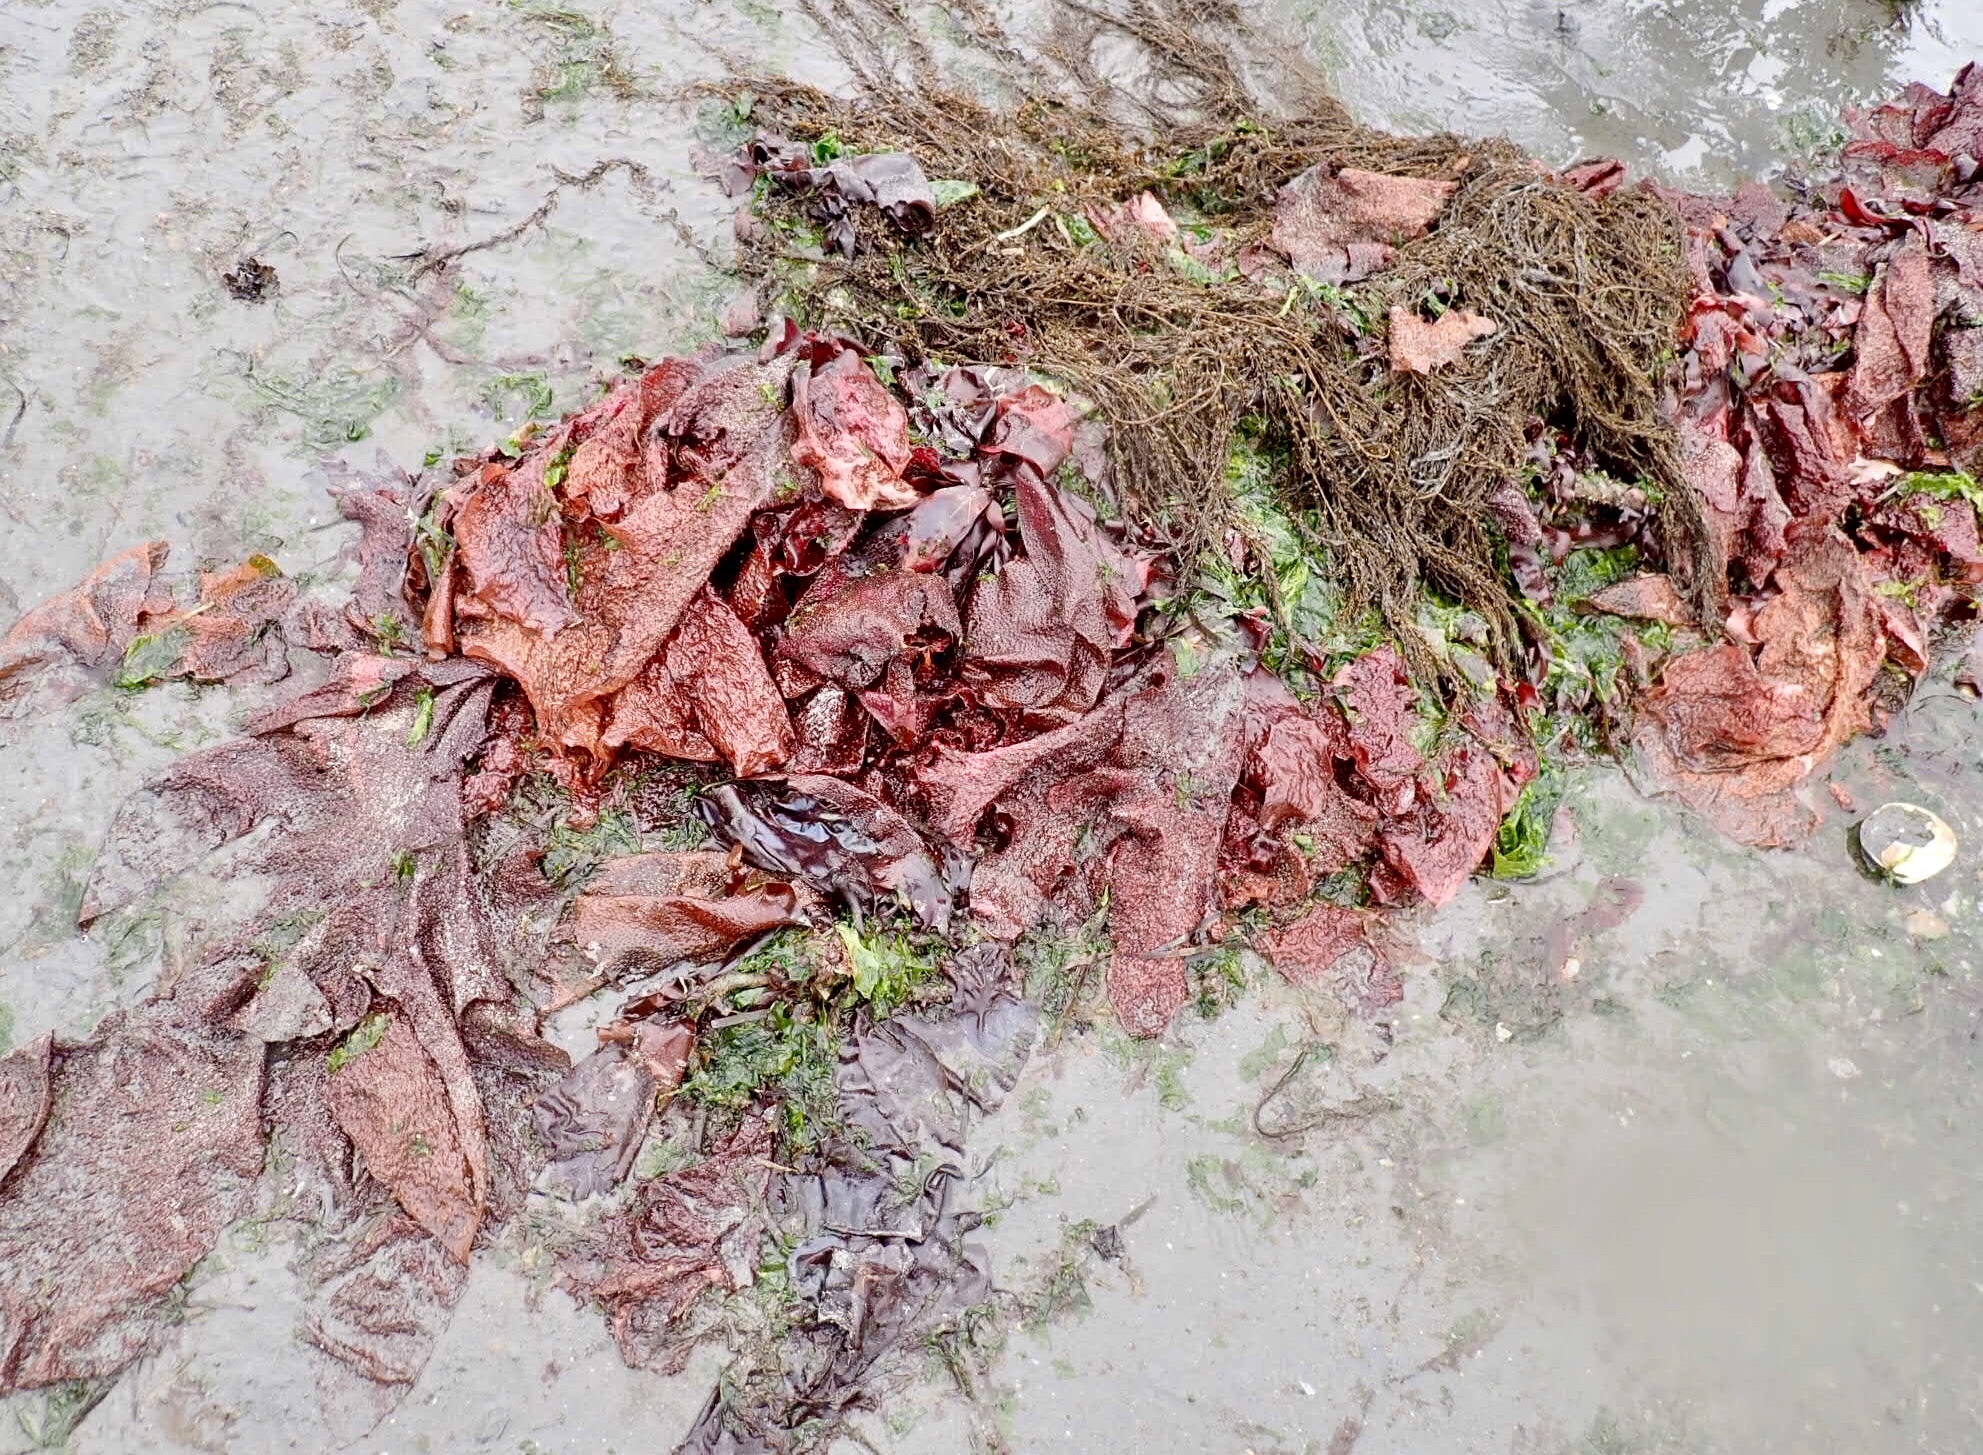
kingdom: Plantae
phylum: Rhodophyta
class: Florideophyceae
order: Gigartinales
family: Gigartinaceae
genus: Chondracanthus
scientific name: Chondracanthus exasperatus
